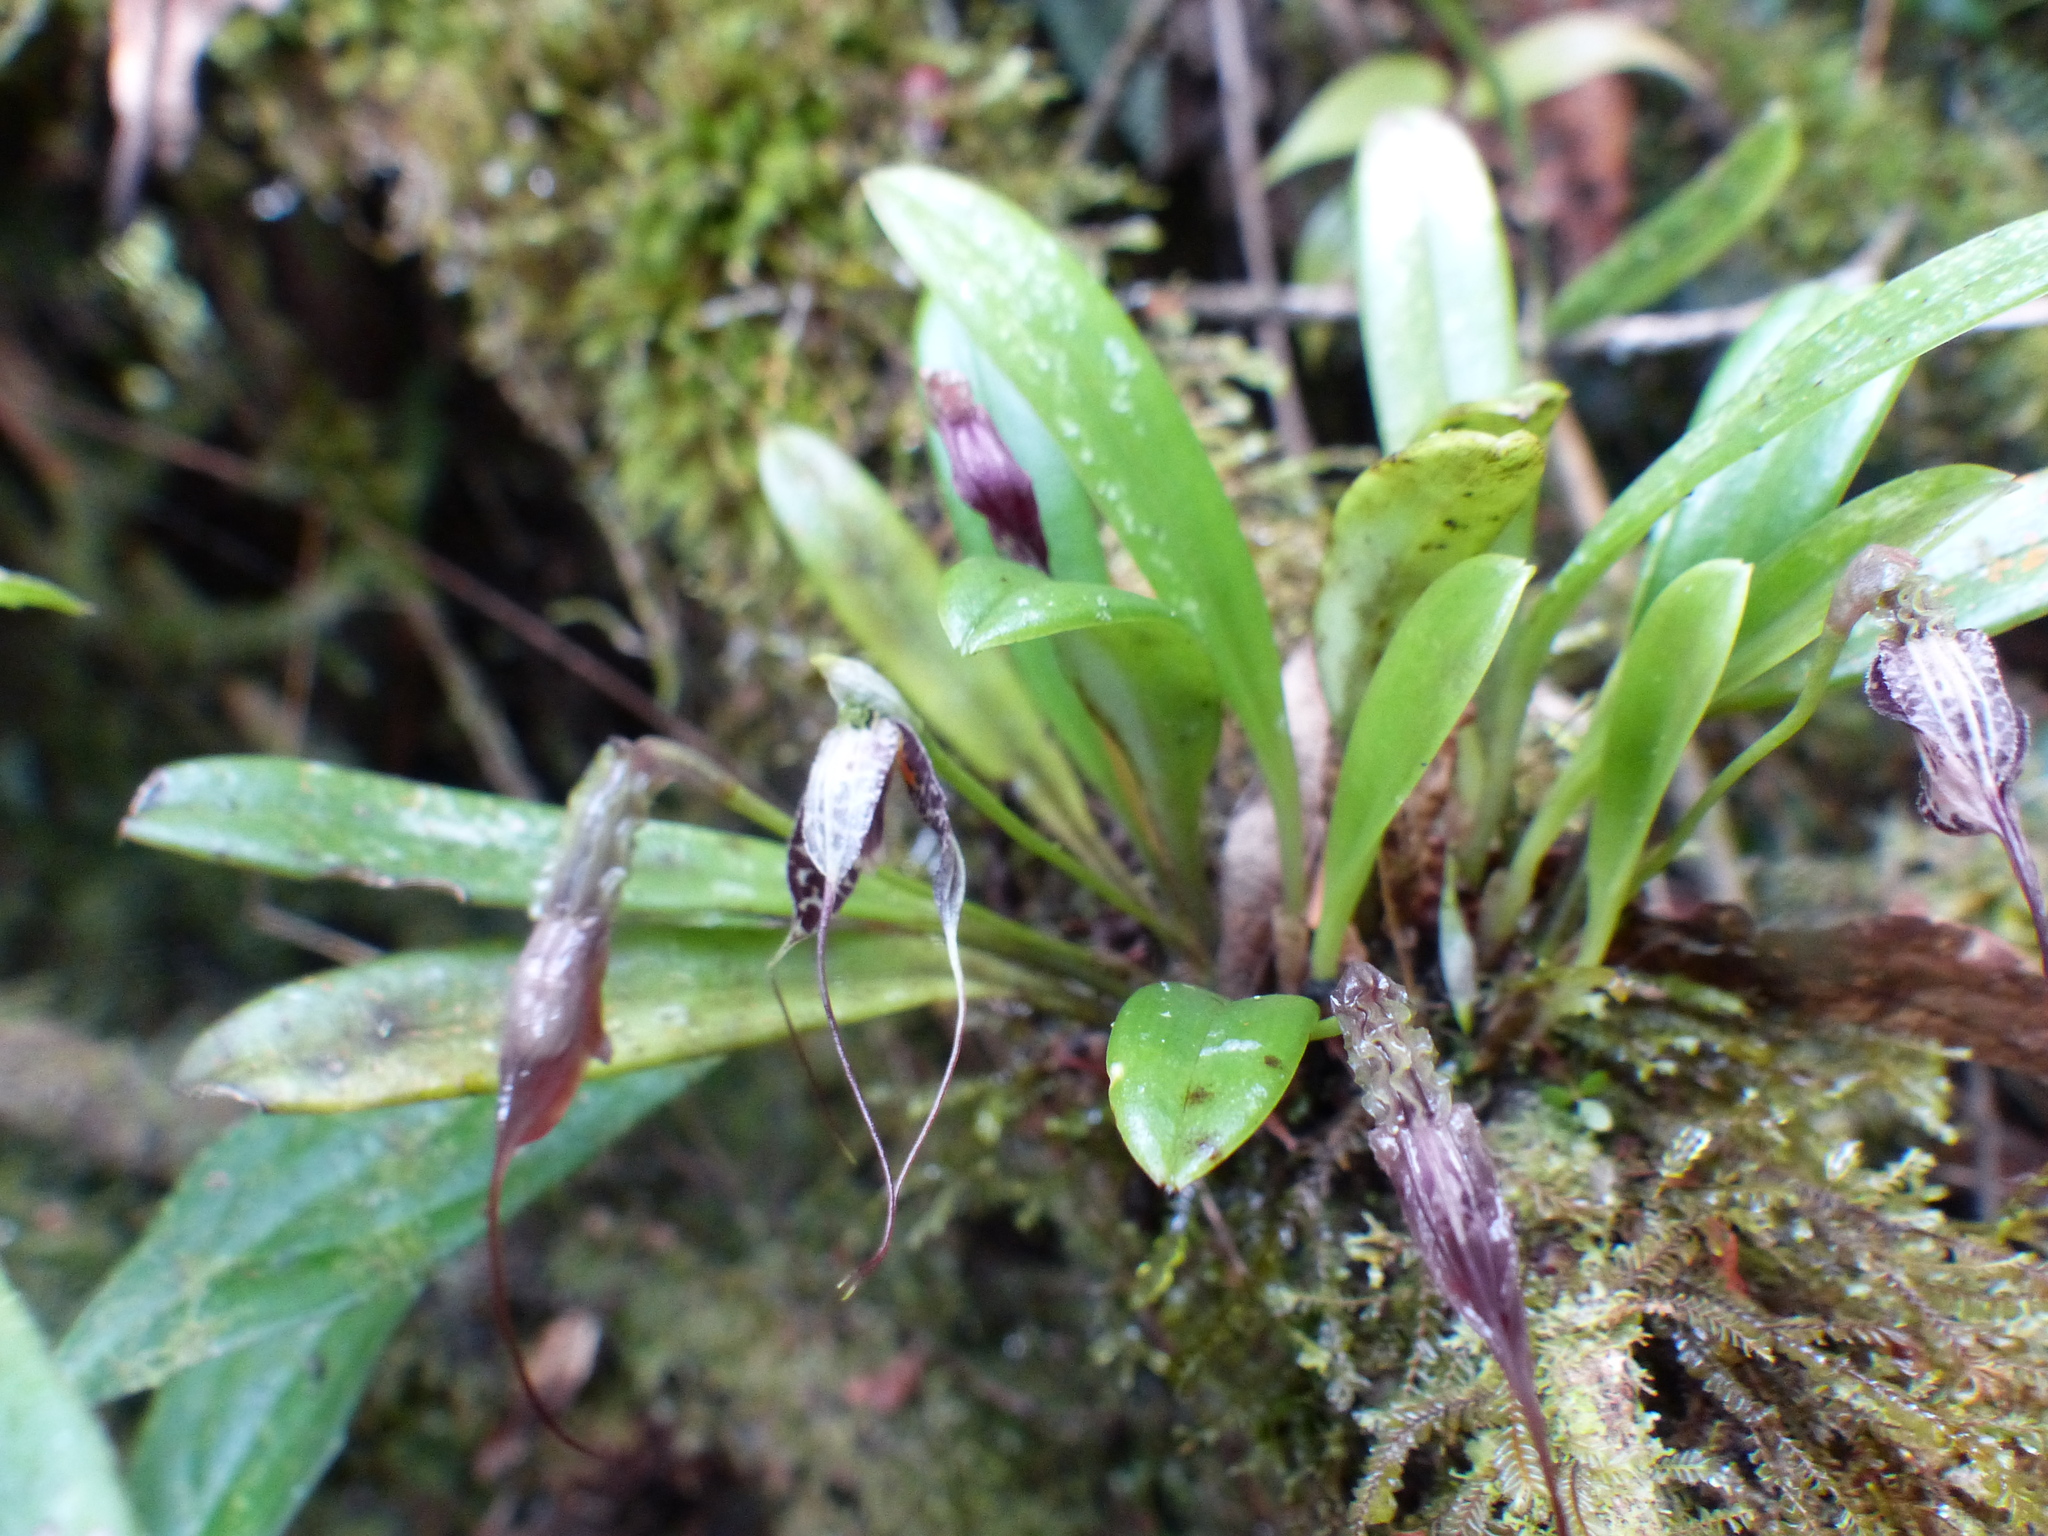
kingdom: Plantae
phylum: Tracheophyta
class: Liliopsida
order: Asparagales
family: Orchidaceae
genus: Masdevallia
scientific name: Masdevallia picturata
